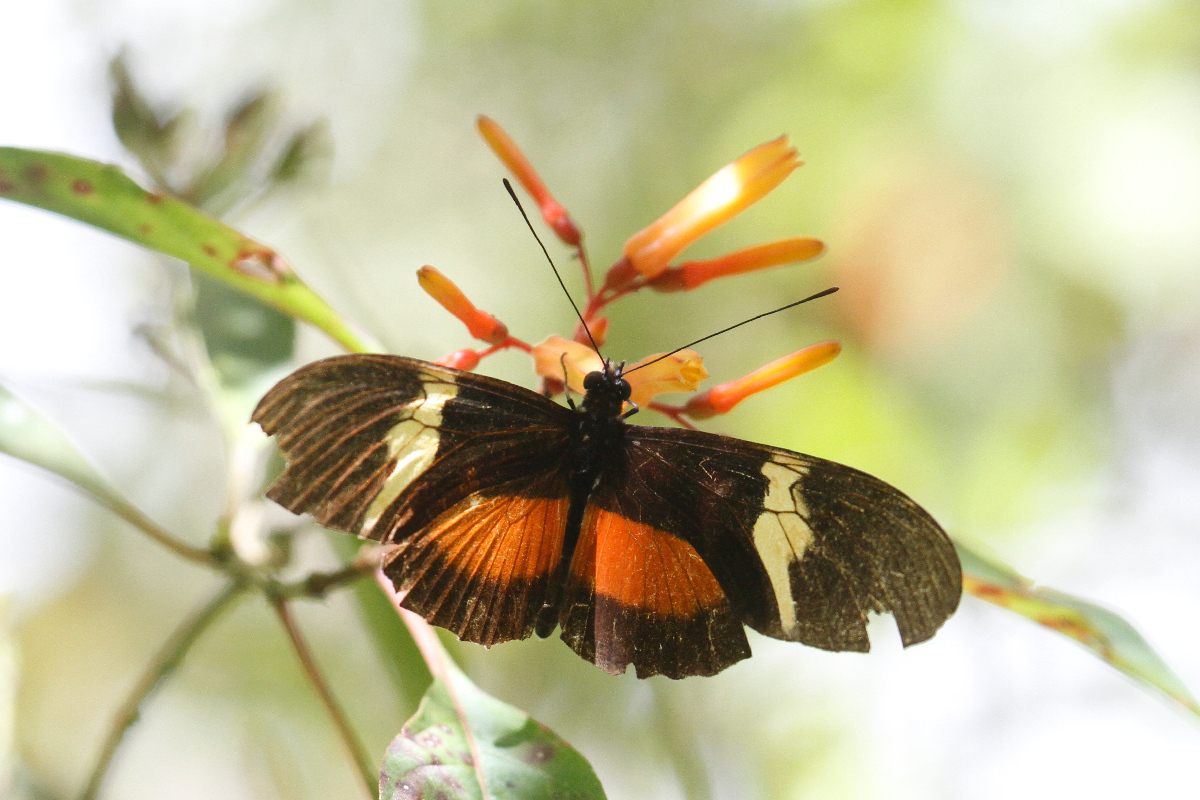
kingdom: Animalia
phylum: Arthropoda
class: Insecta
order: Lepidoptera
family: Nymphalidae
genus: Heliconius
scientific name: Heliconius clysonymus
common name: Clysonymus longwing
